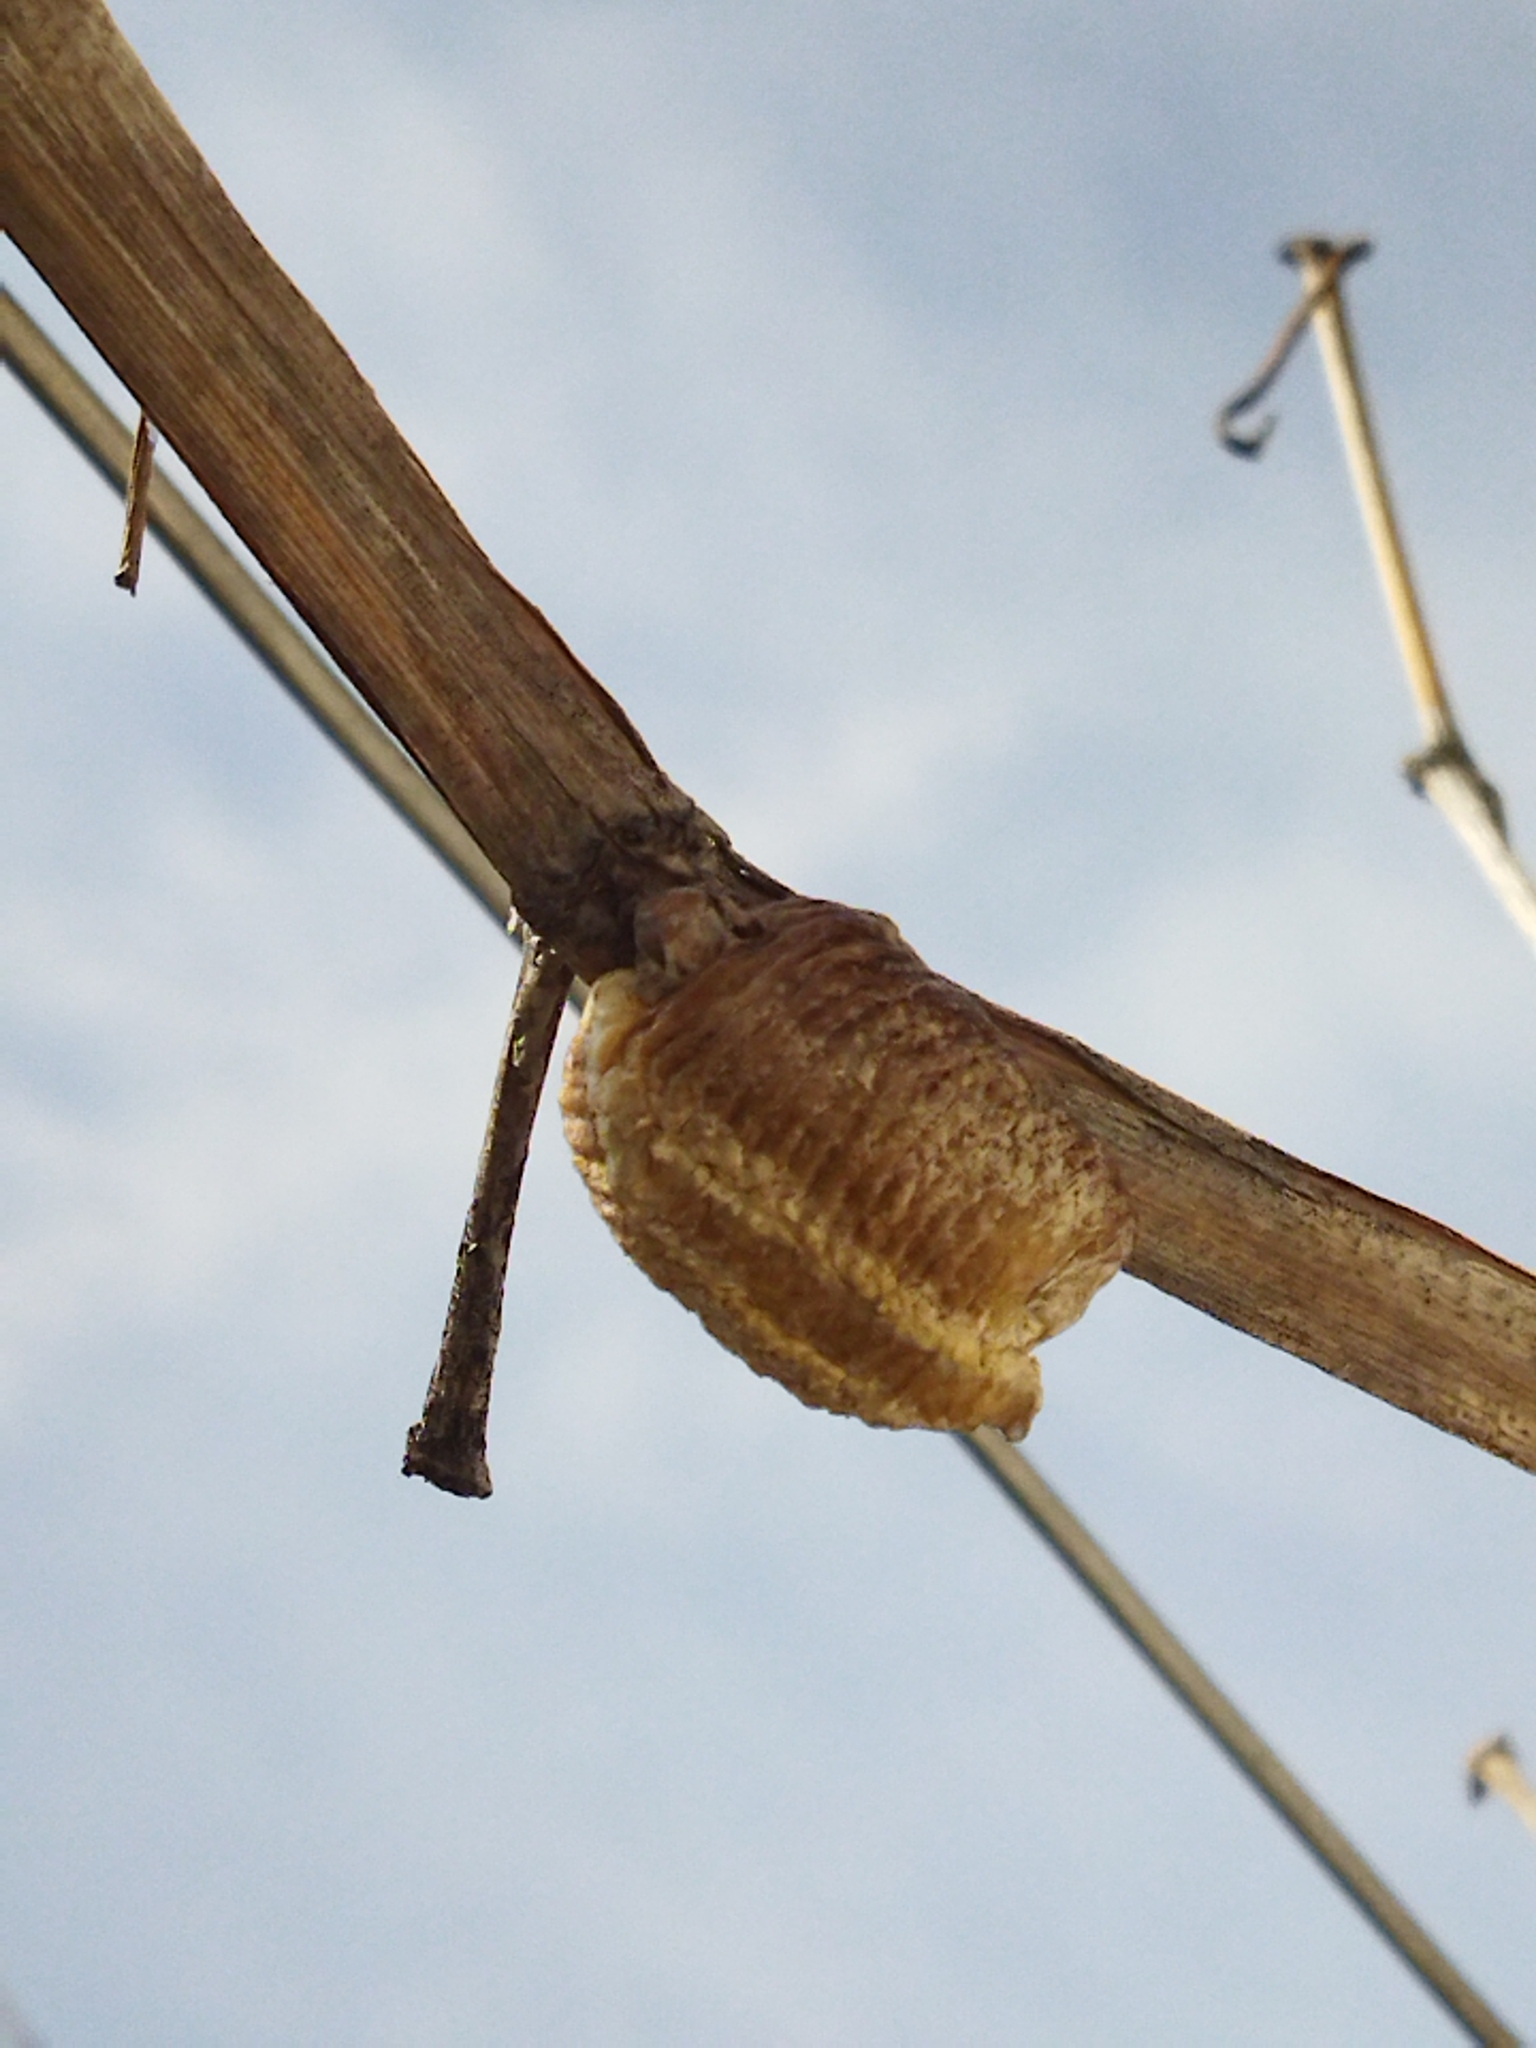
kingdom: Animalia
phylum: Arthropoda
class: Insecta
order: Mantodea
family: Mantidae
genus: Hierodula
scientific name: Hierodula transcaucasica
